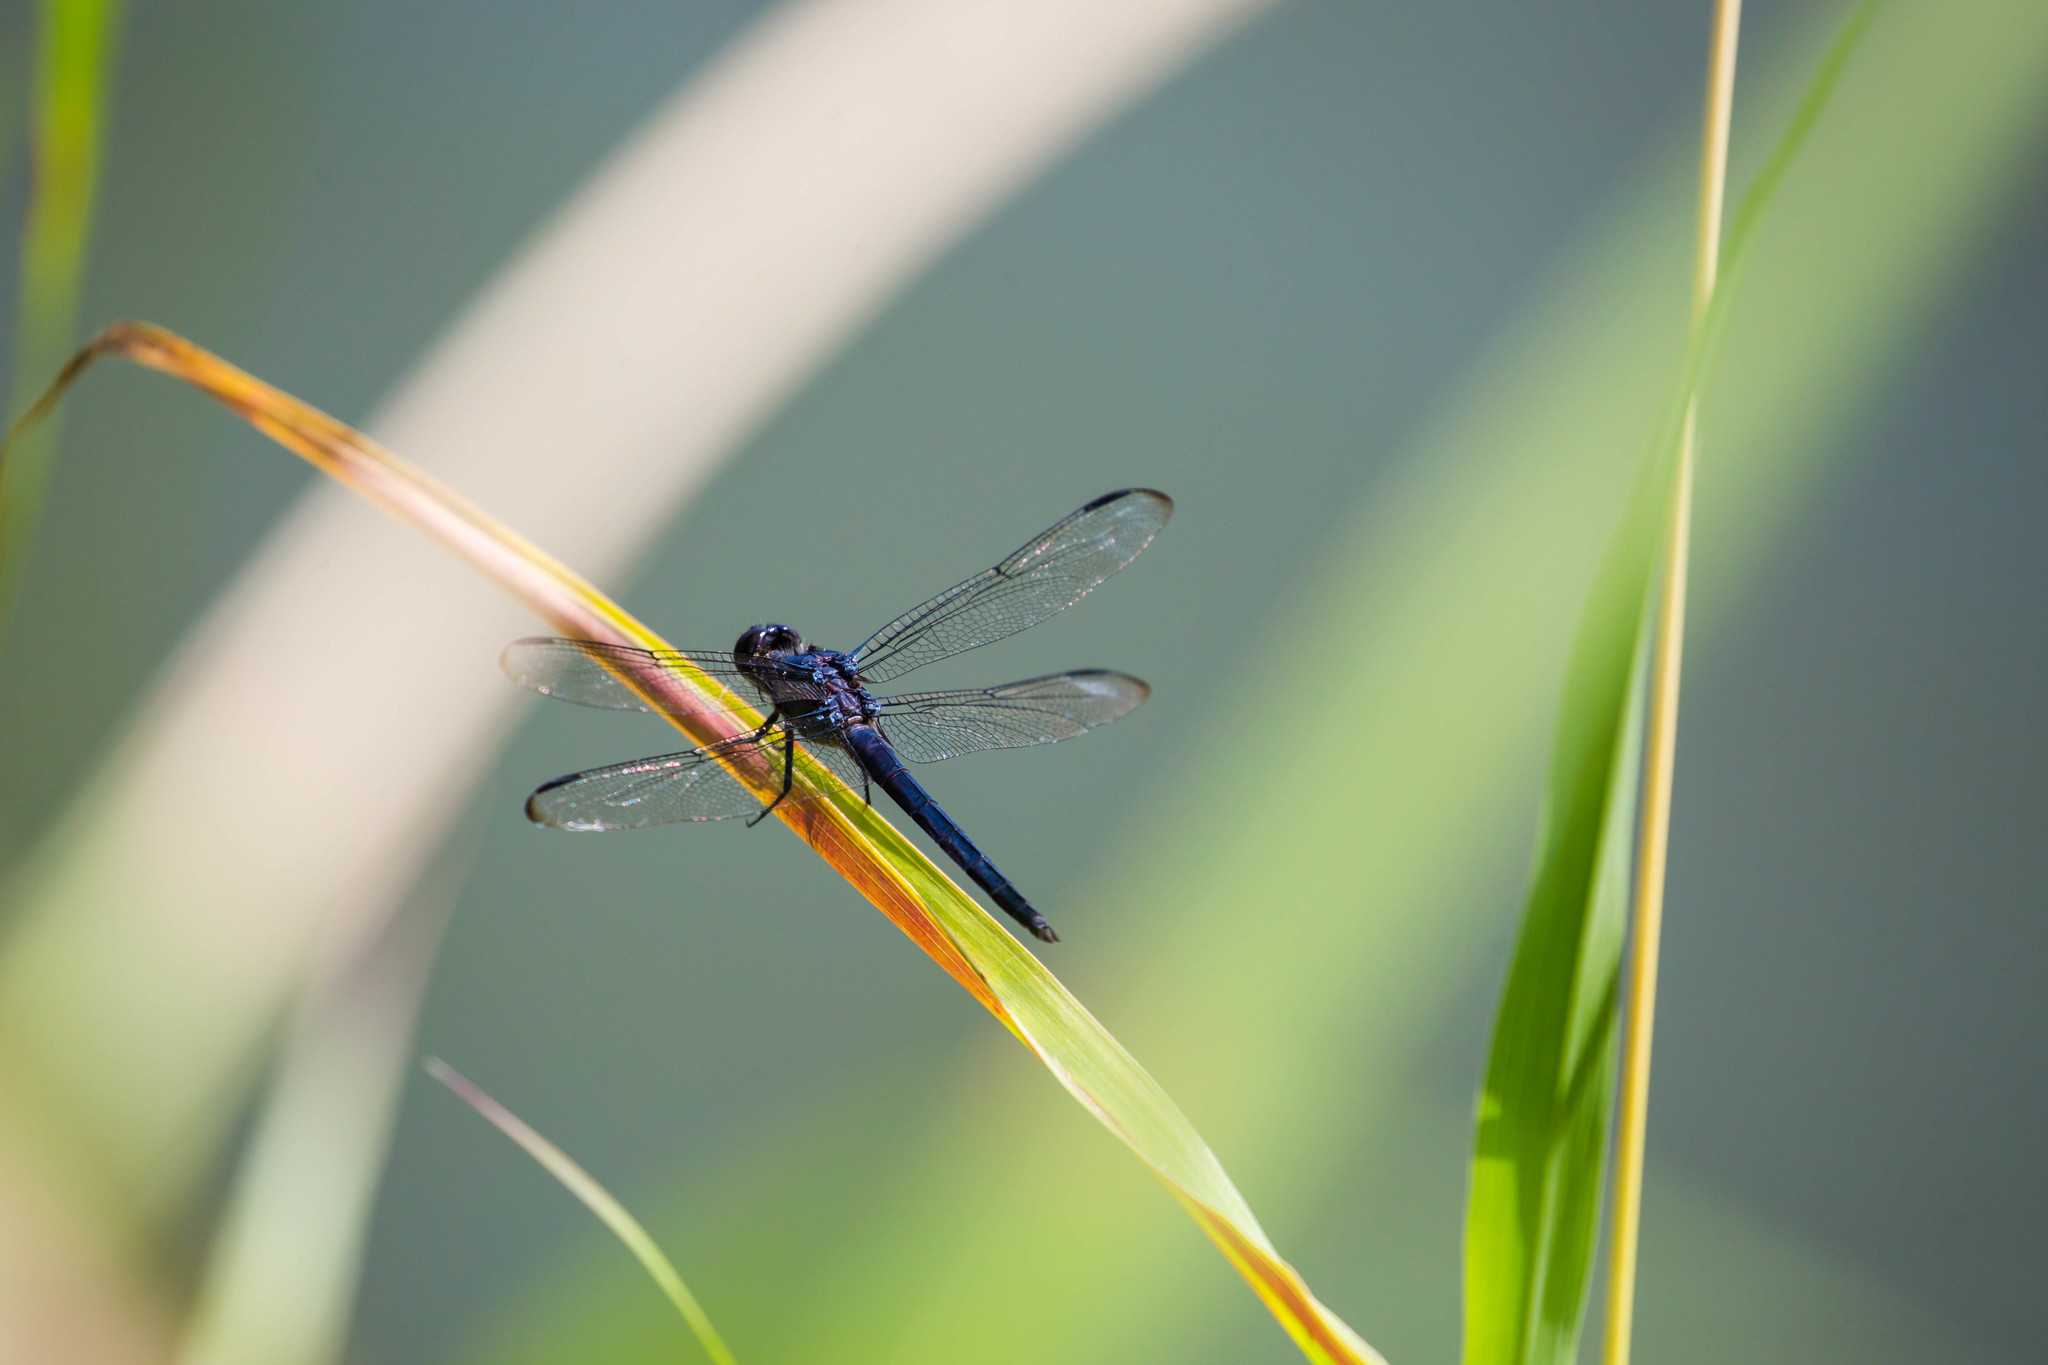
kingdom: Animalia
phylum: Arthropoda
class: Insecta
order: Odonata
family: Libellulidae
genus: Libellula
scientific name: Libellula incesta
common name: Slaty skimmer
